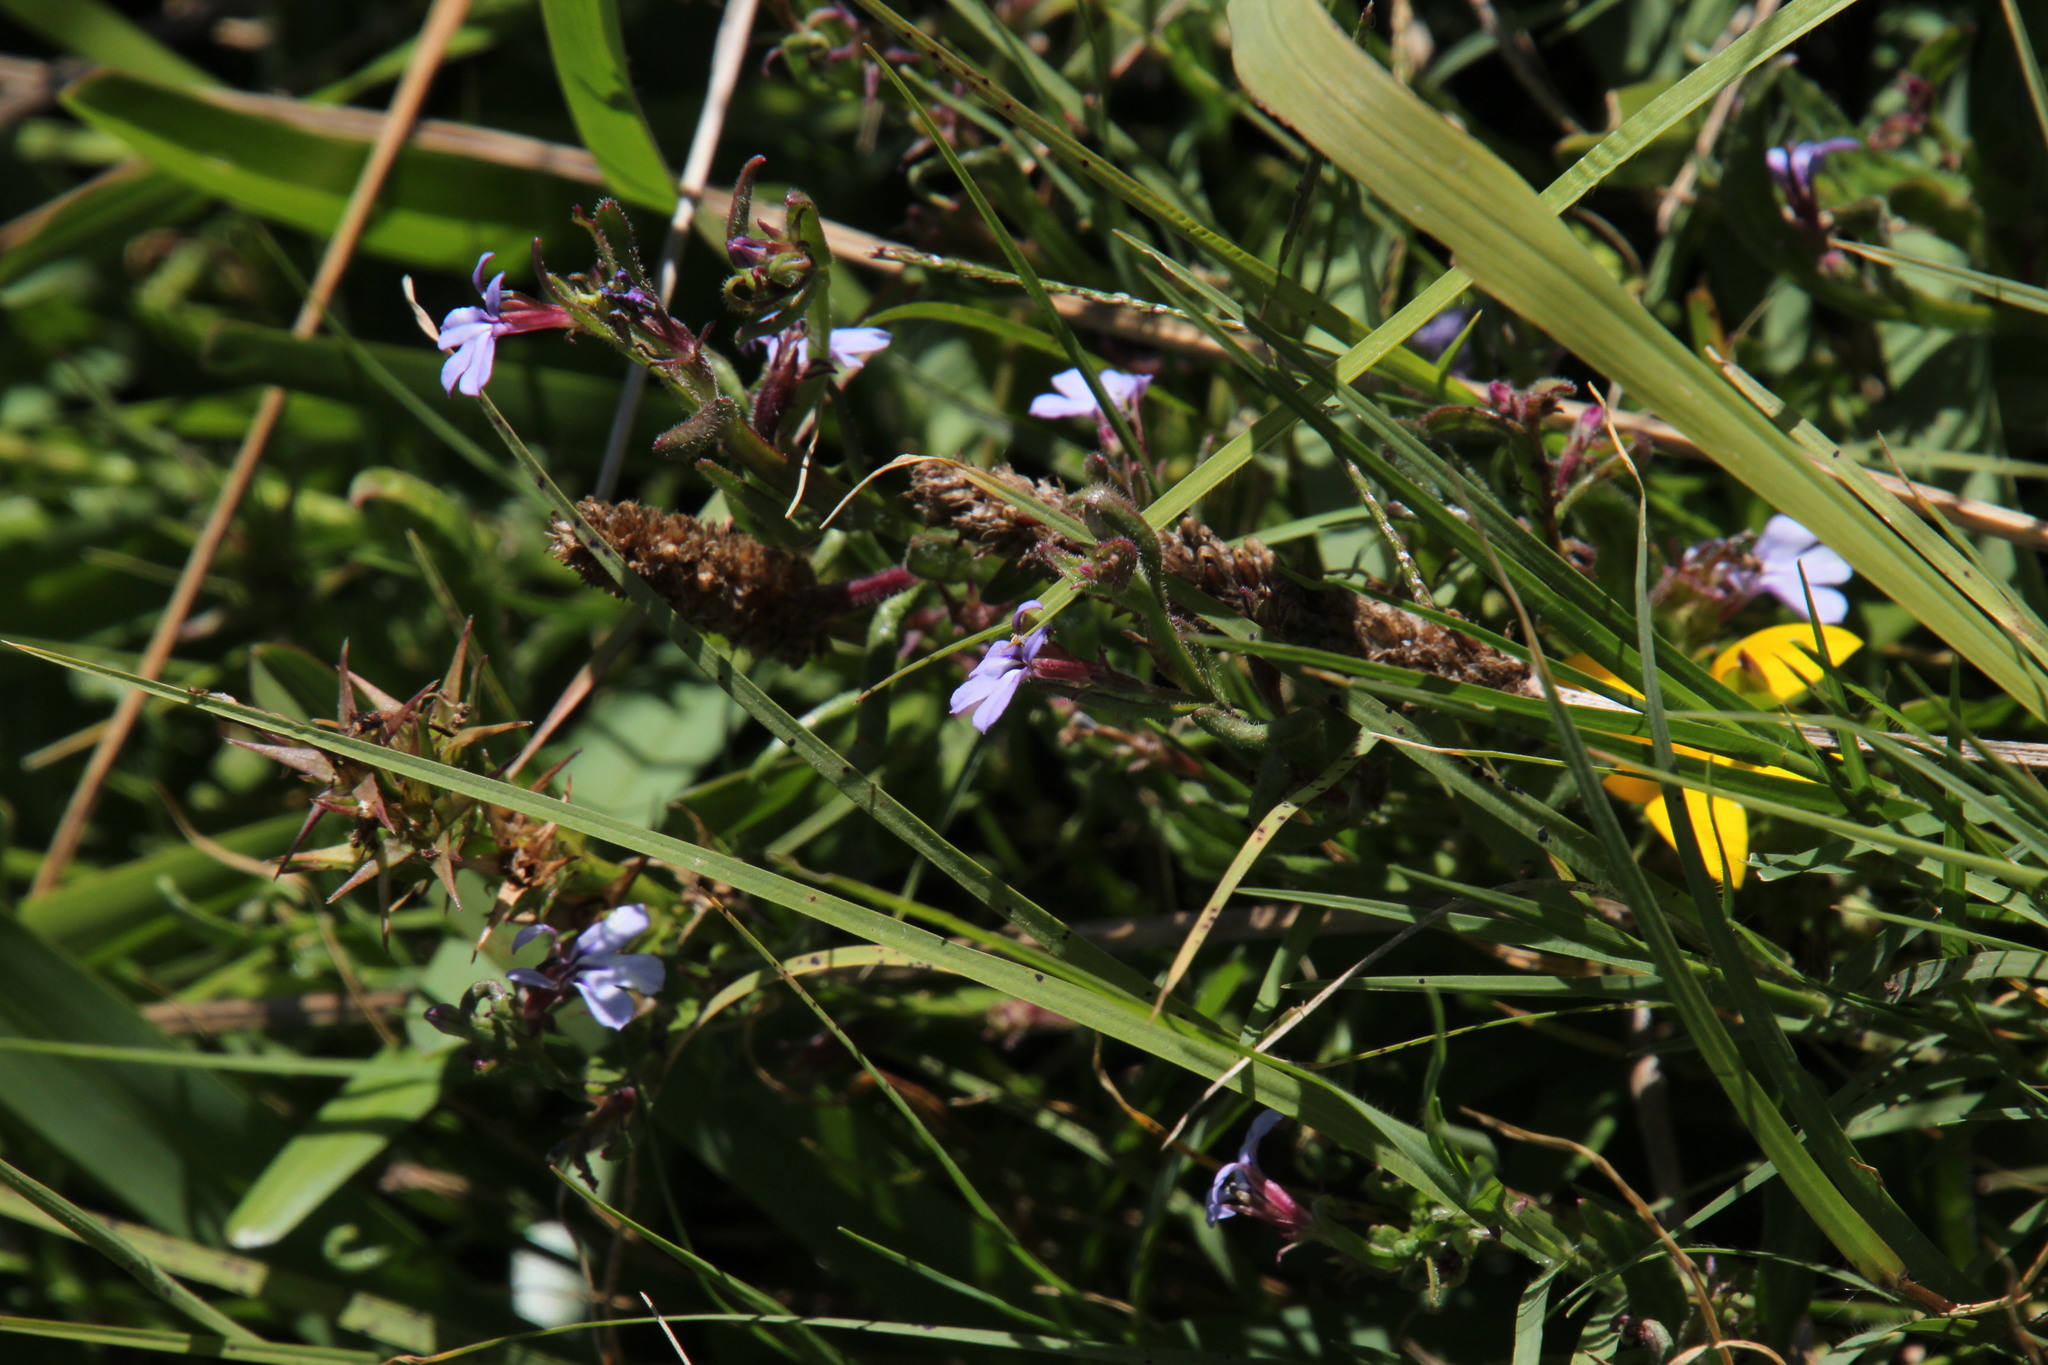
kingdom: Plantae
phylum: Tracheophyta
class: Magnoliopsida
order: Asterales
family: Campanulaceae
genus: Lobelia
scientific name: Lobelia anceps
